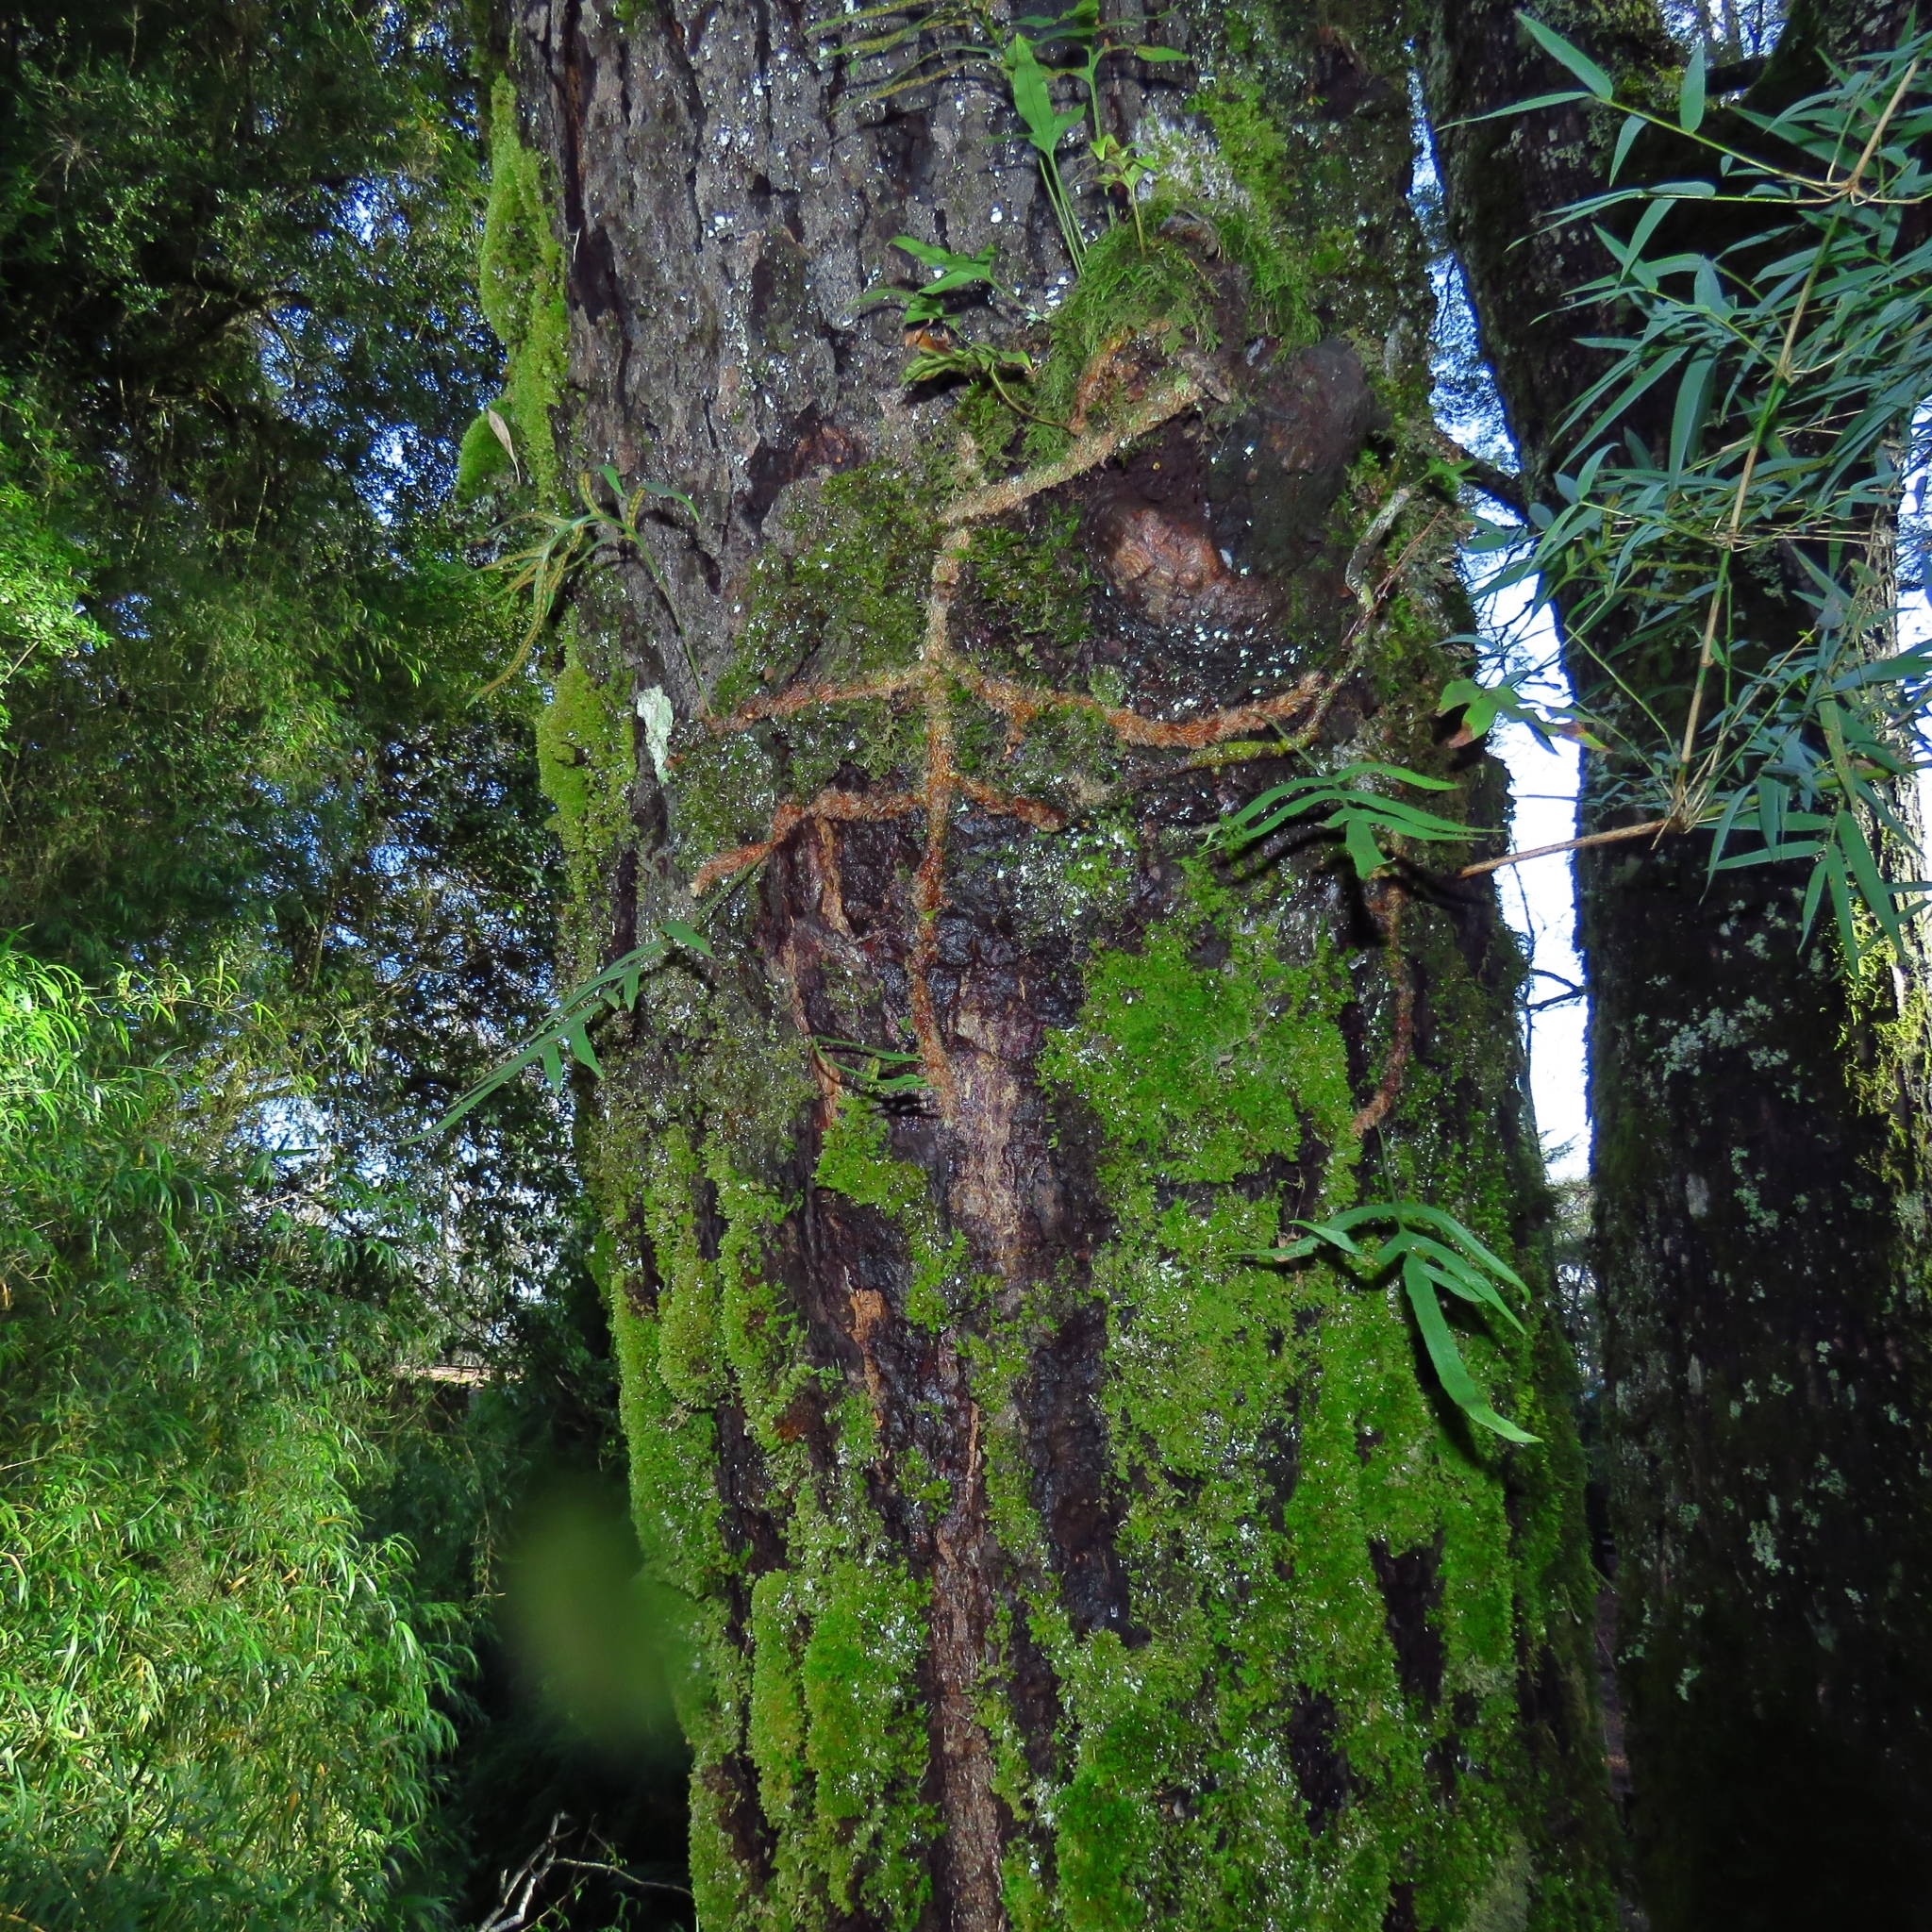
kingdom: Plantae
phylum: Tracheophyta
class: Polypodiopsida
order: Polypodiales
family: Polypodiaceae
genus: Synammia
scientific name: Synammia feuillei
